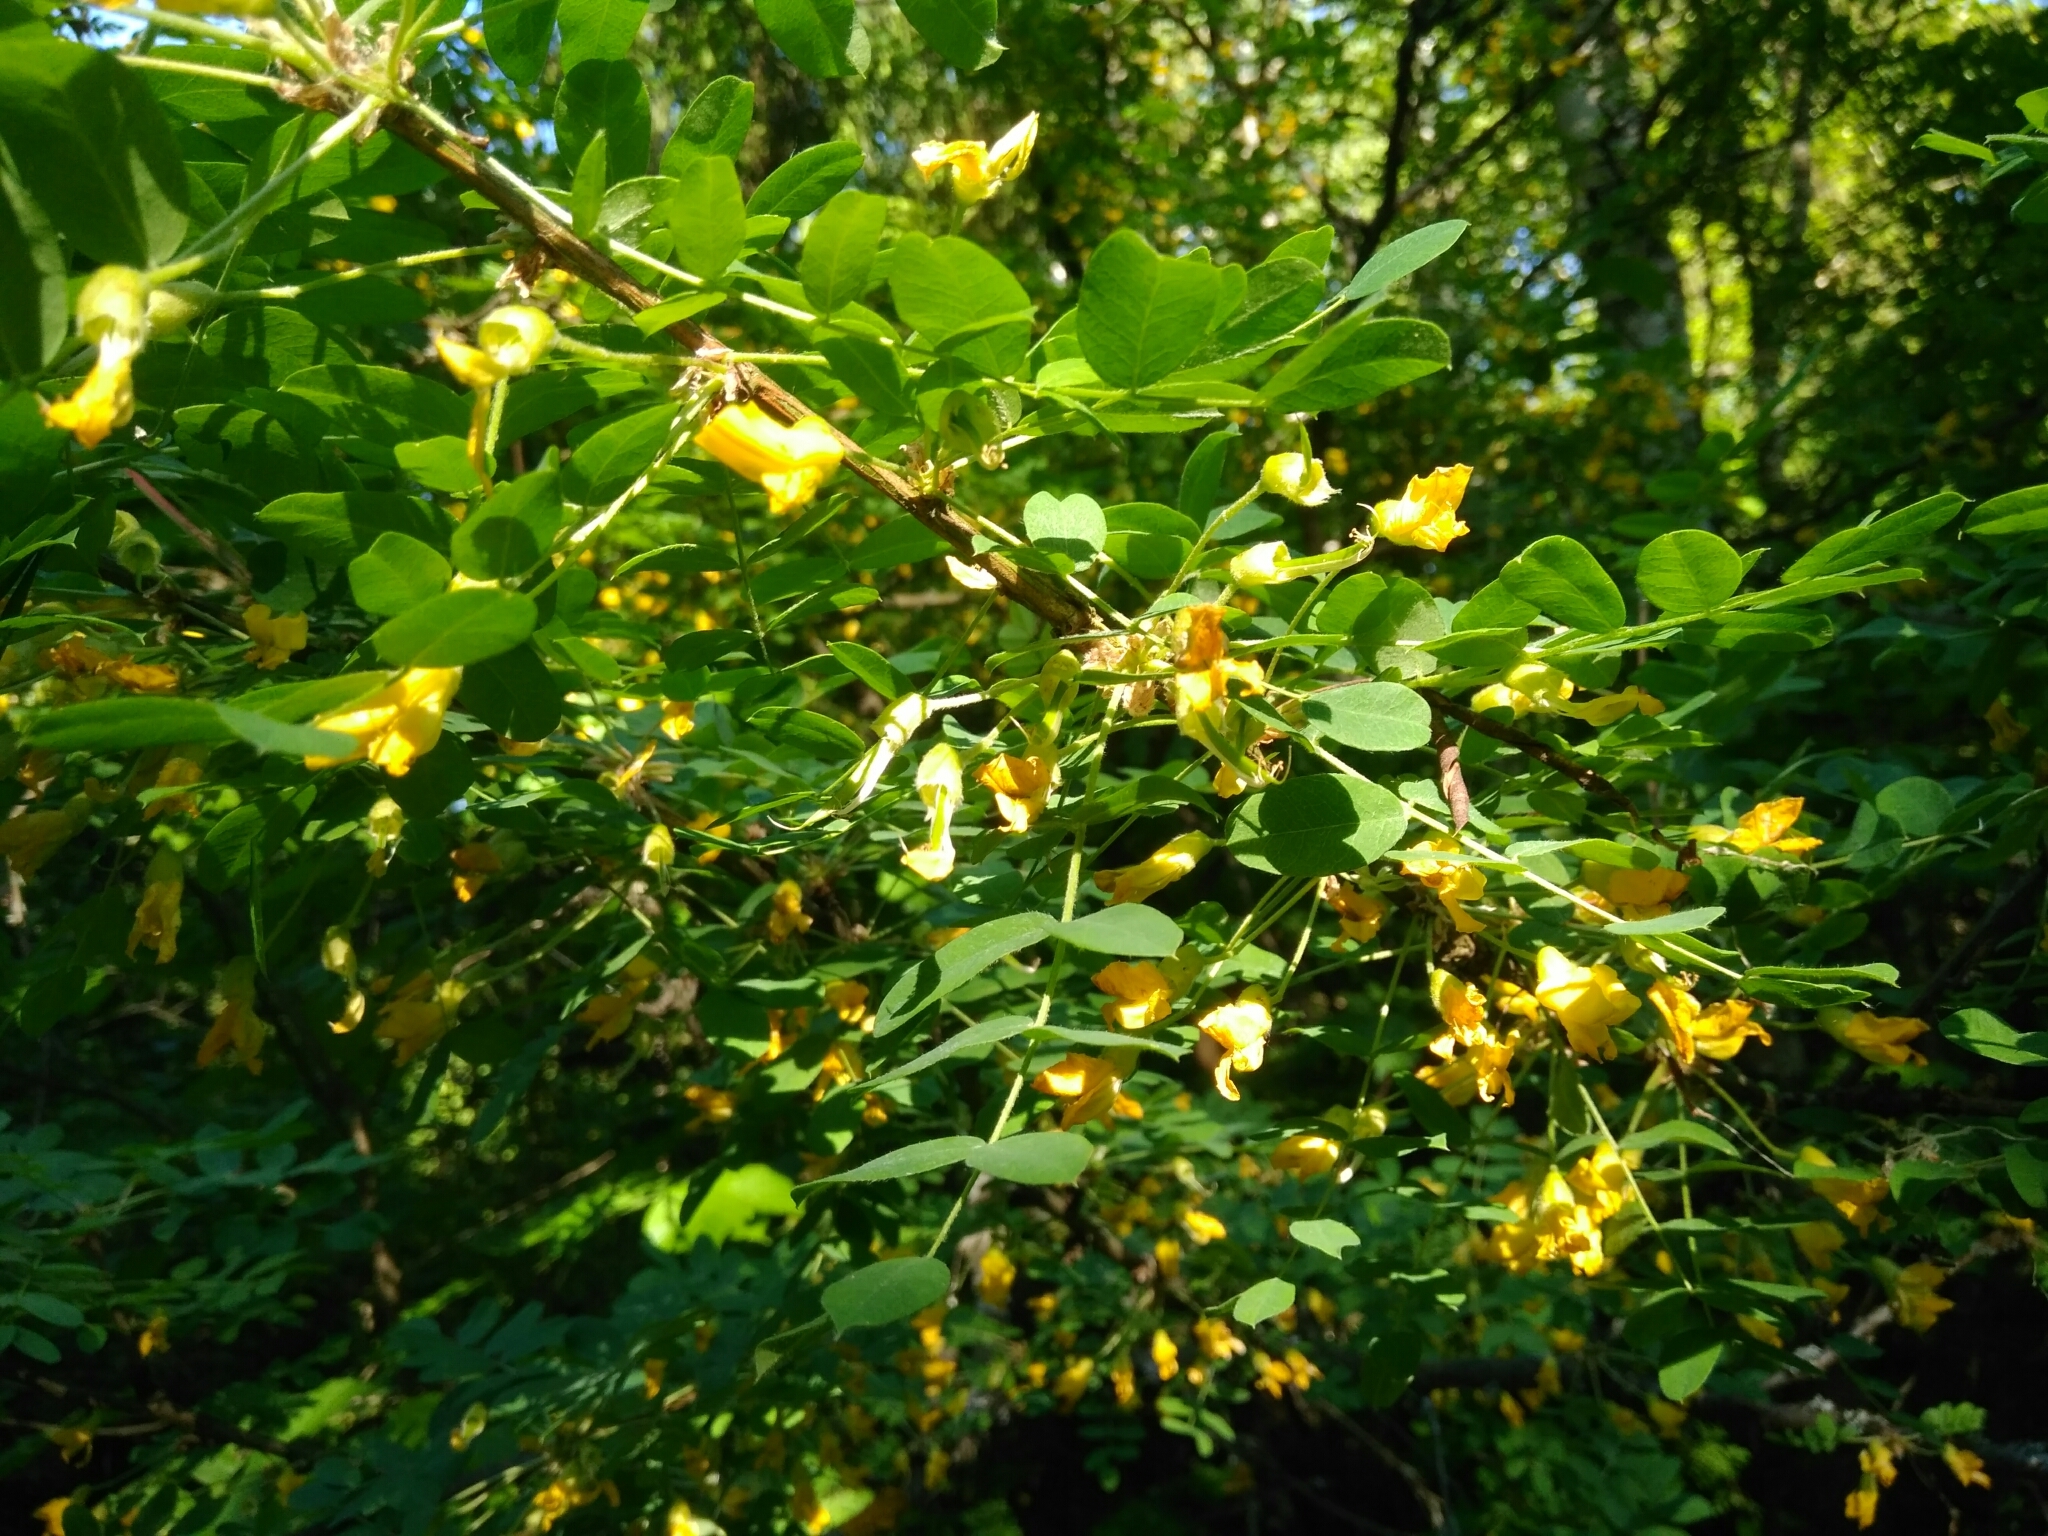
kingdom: Plantae
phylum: Tracheophyta
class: Magnoliopsida
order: Fabales
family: Fabaceae
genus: Caragana
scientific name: Caragana arborescens
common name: Siberian peashrub
